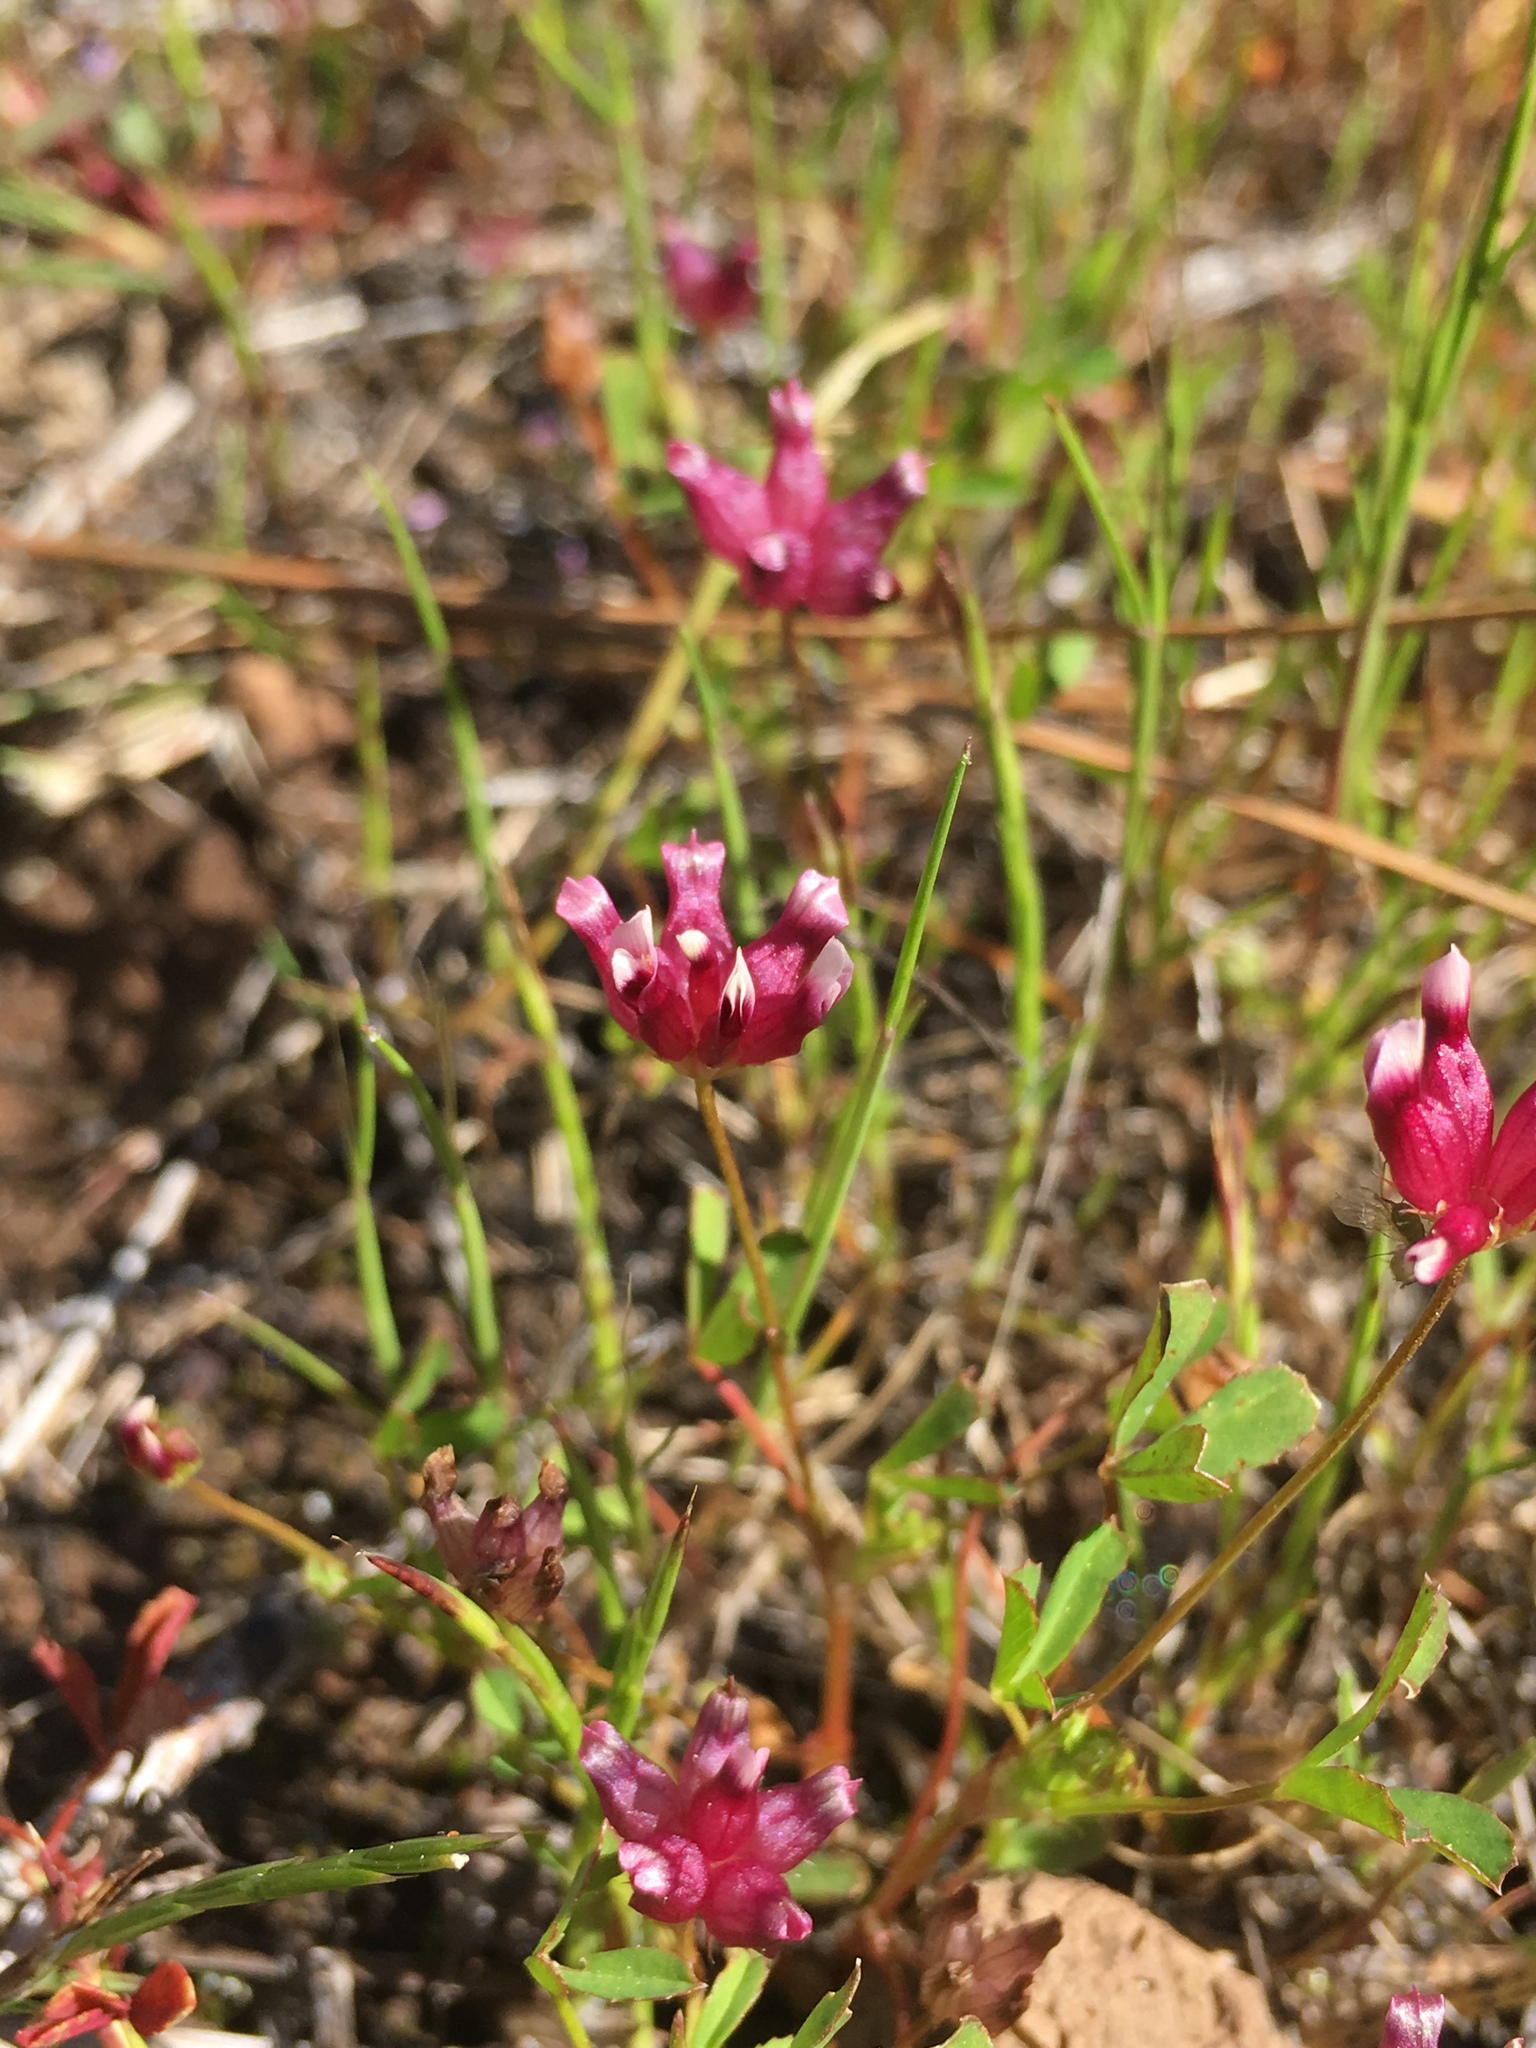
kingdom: Plantae
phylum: Tracheophyta
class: Magnoliopsida
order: Fabales
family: Fabaceae
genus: Trifolium
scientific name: Trifolium depauperatum
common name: Poverty clover
